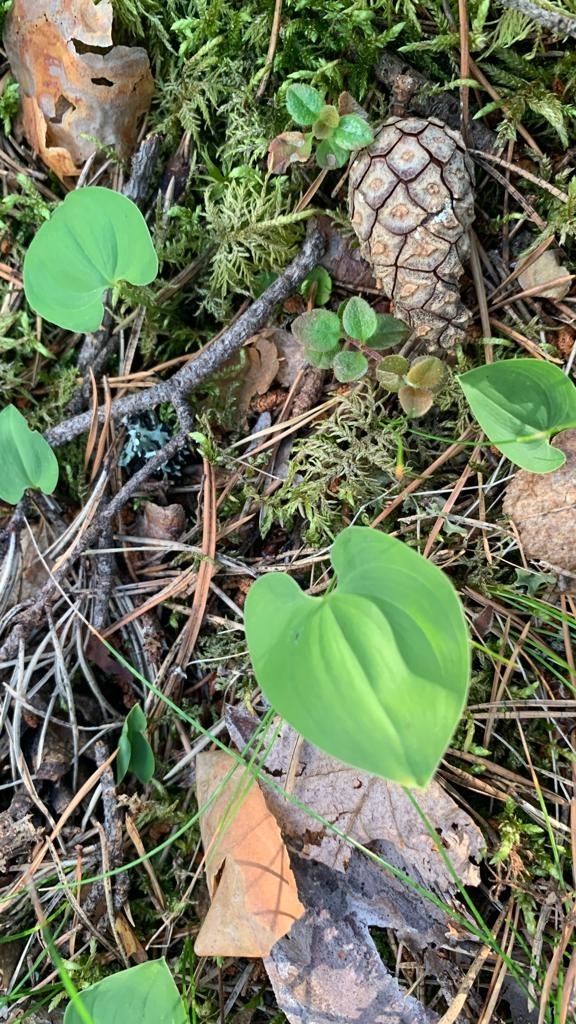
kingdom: Plantae
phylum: Tracheophyta
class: Liliopsida
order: Asparagales
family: Asparagaceae
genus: Maianthemum
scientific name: Maianthemum bifolium
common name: May lily
